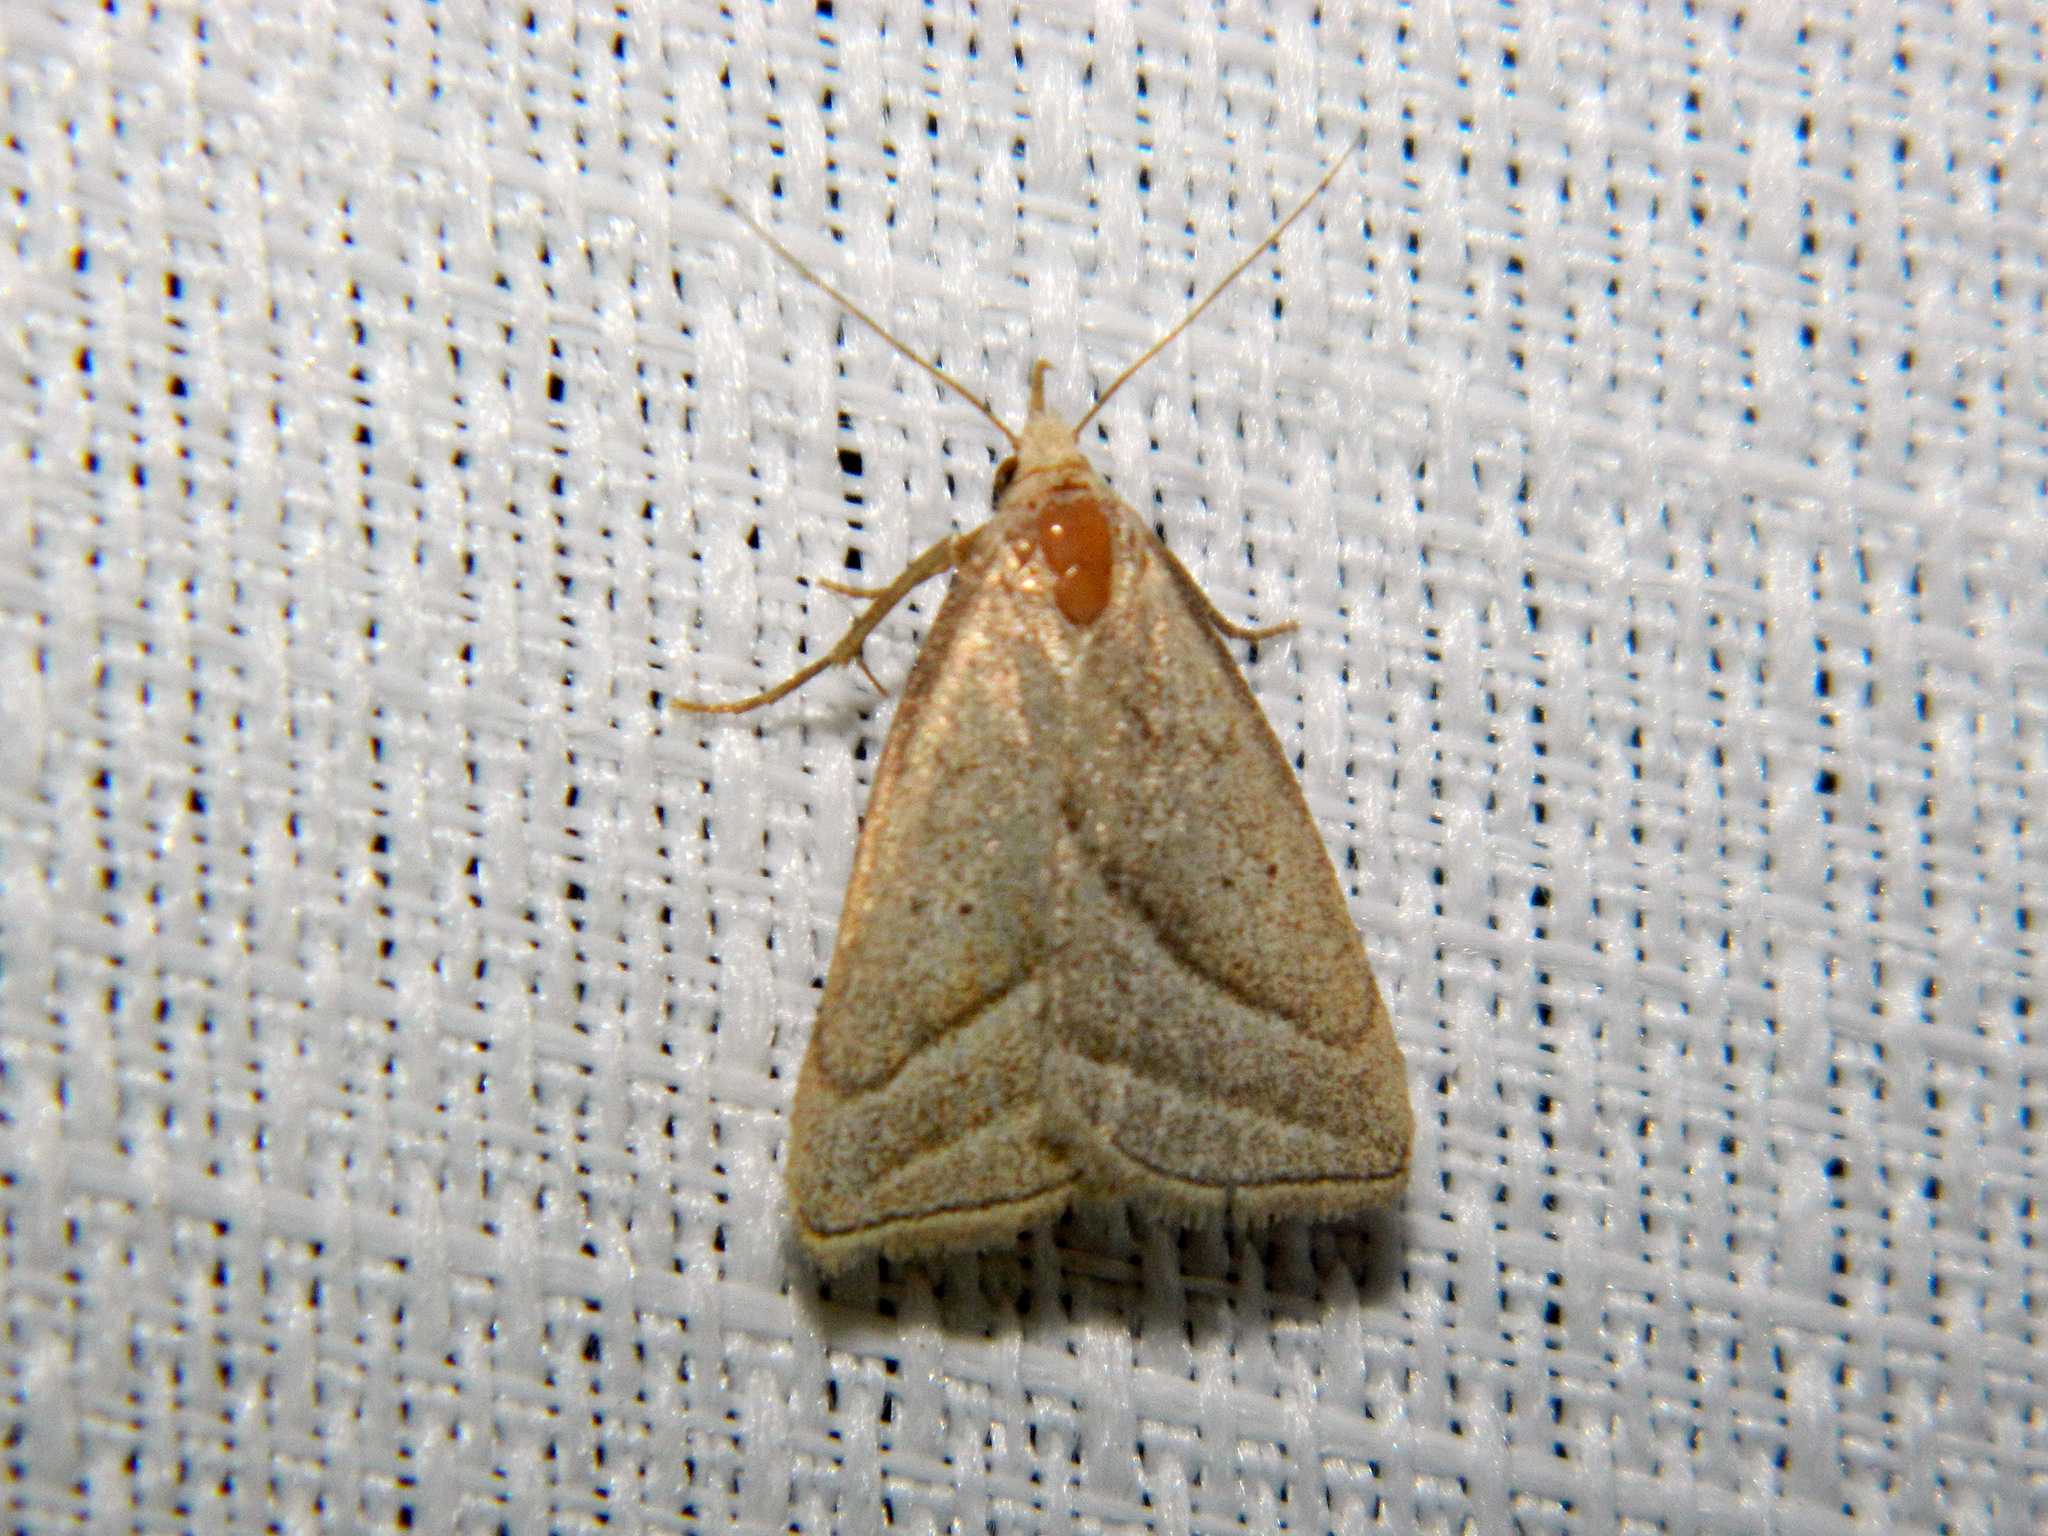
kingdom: Animalia
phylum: Arthropoda
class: Insecta
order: Lepidoptera
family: Erebidae
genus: Macrochilo
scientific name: Macrochilo absorptalis
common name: Slant-lined owlet
